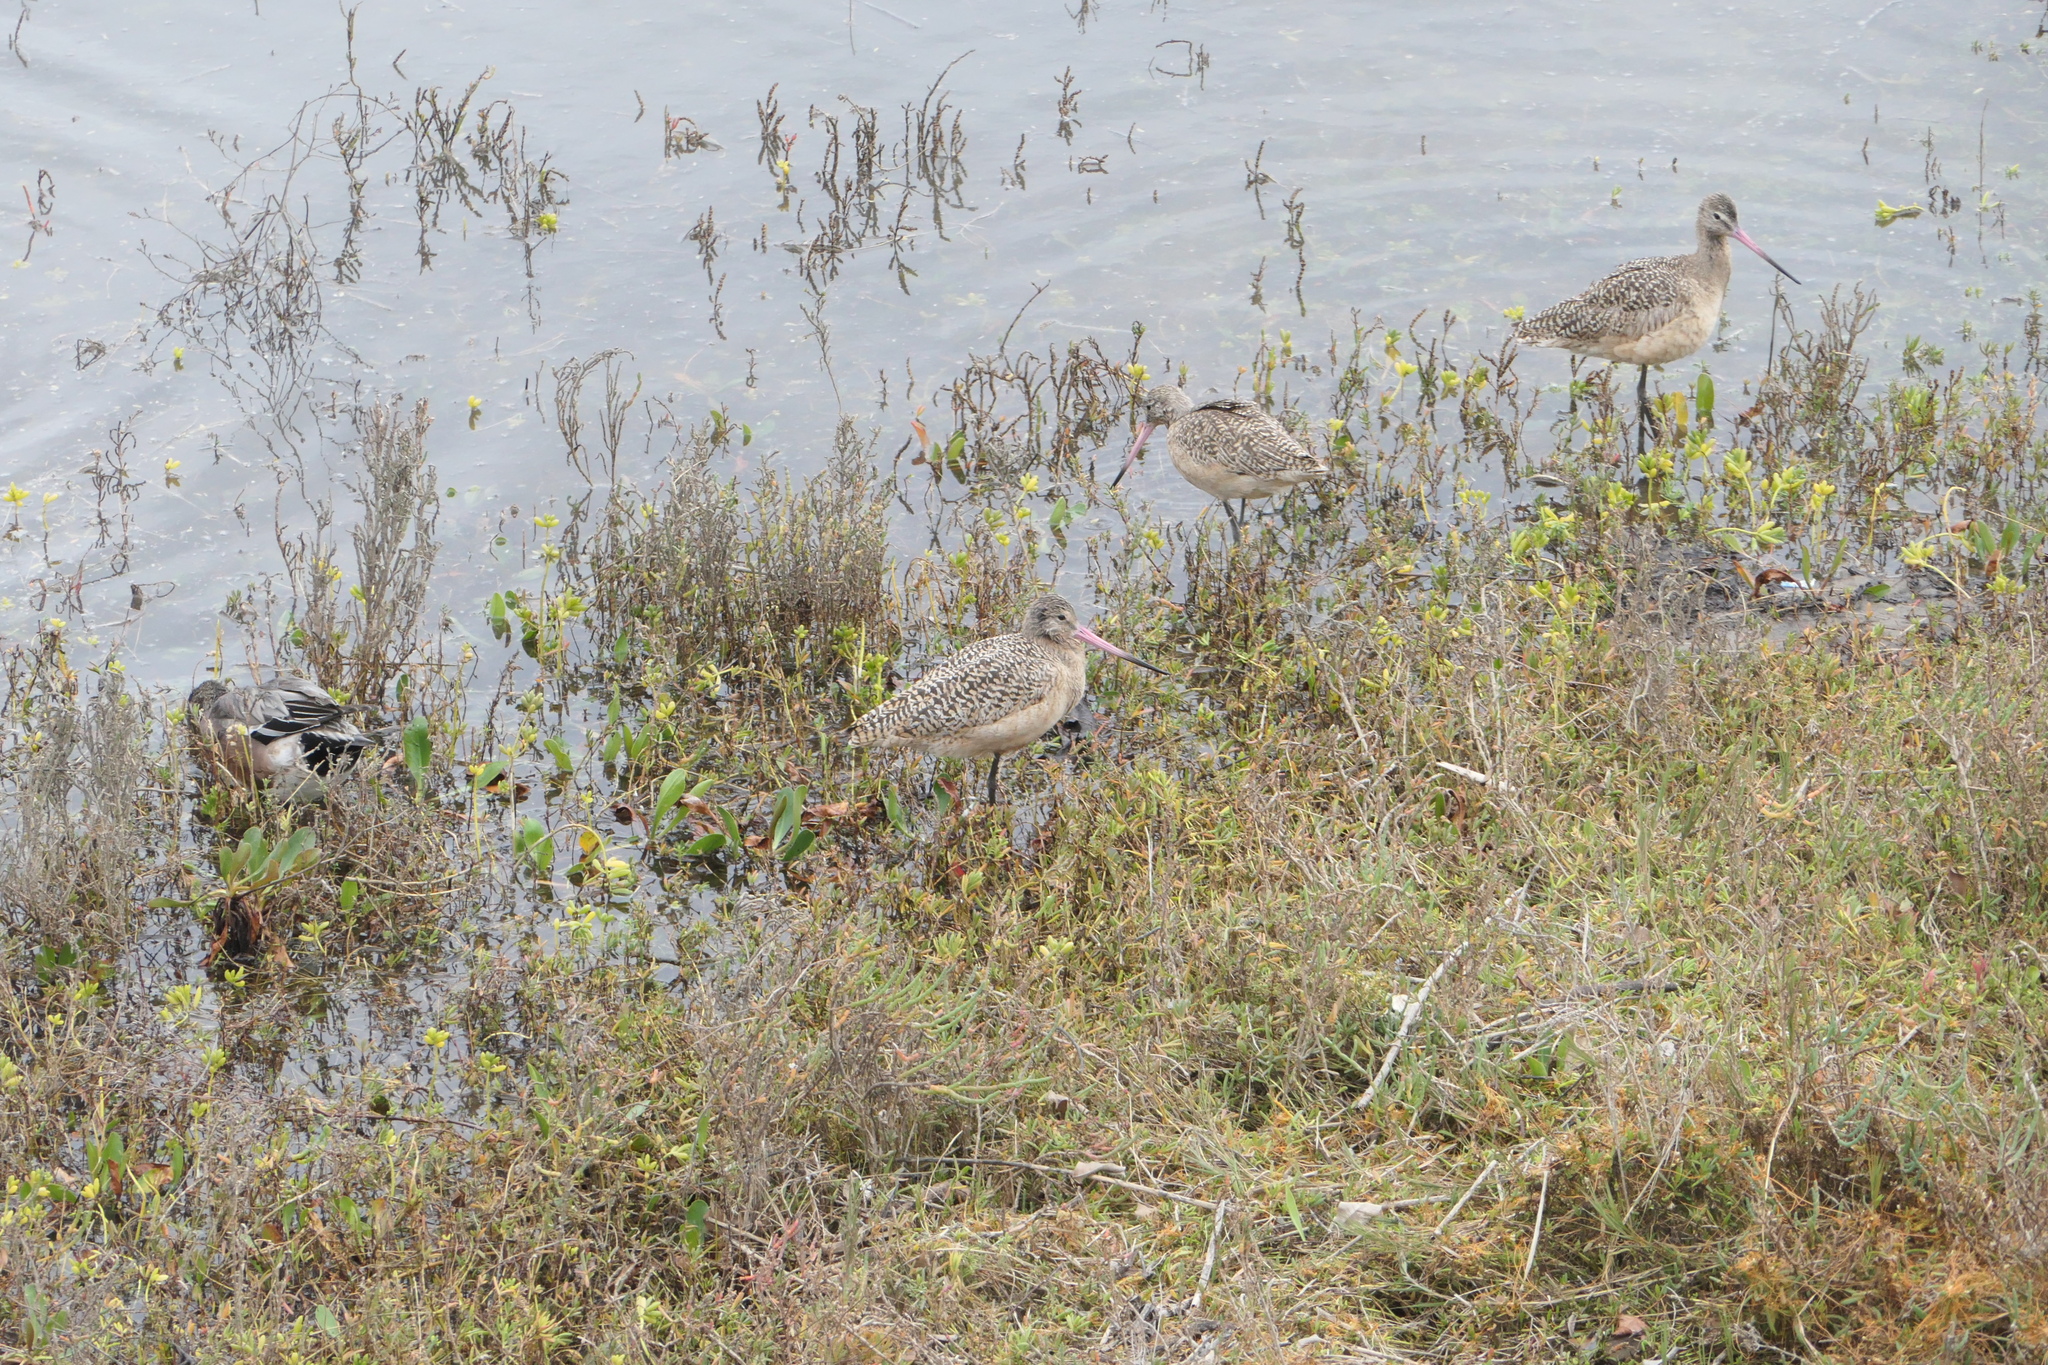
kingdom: Animalia
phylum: Chordata
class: Aves
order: Charadriiformes
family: Scolopacidae
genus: Limosa
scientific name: Limosa fedoa
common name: Marbled godwit
